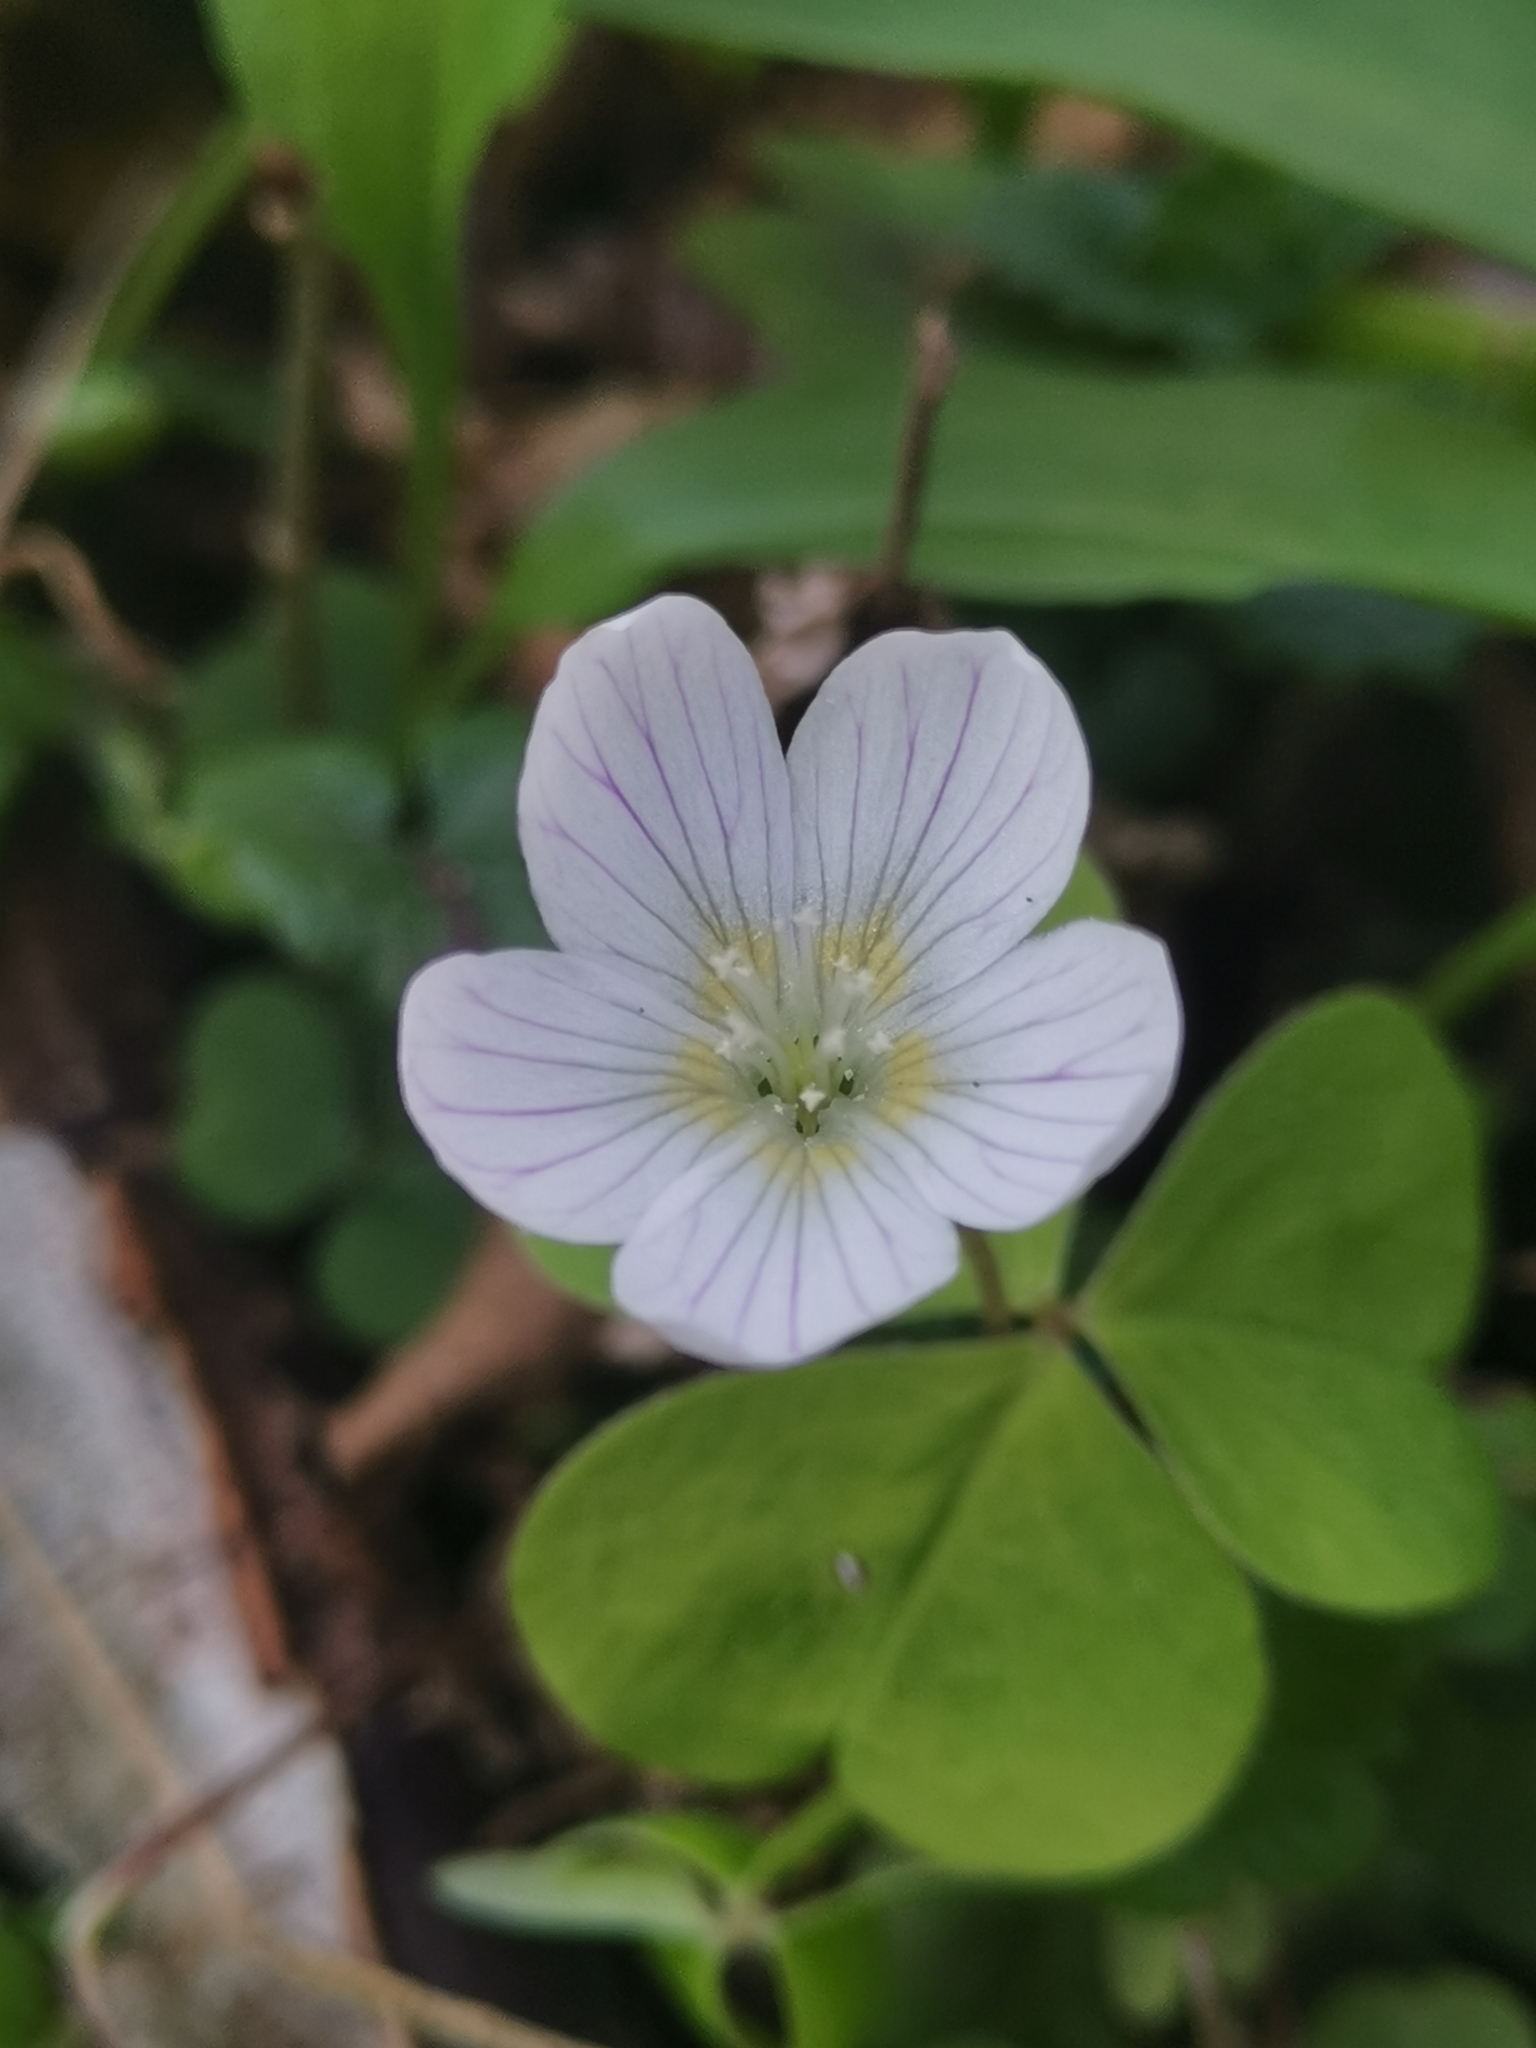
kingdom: Plantae
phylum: Tracheophyta
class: Magnoliopsida
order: Oxalidales
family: Oxalidaceae
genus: Oxalis
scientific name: Oxalis acetosella
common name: Wood-sorrel
